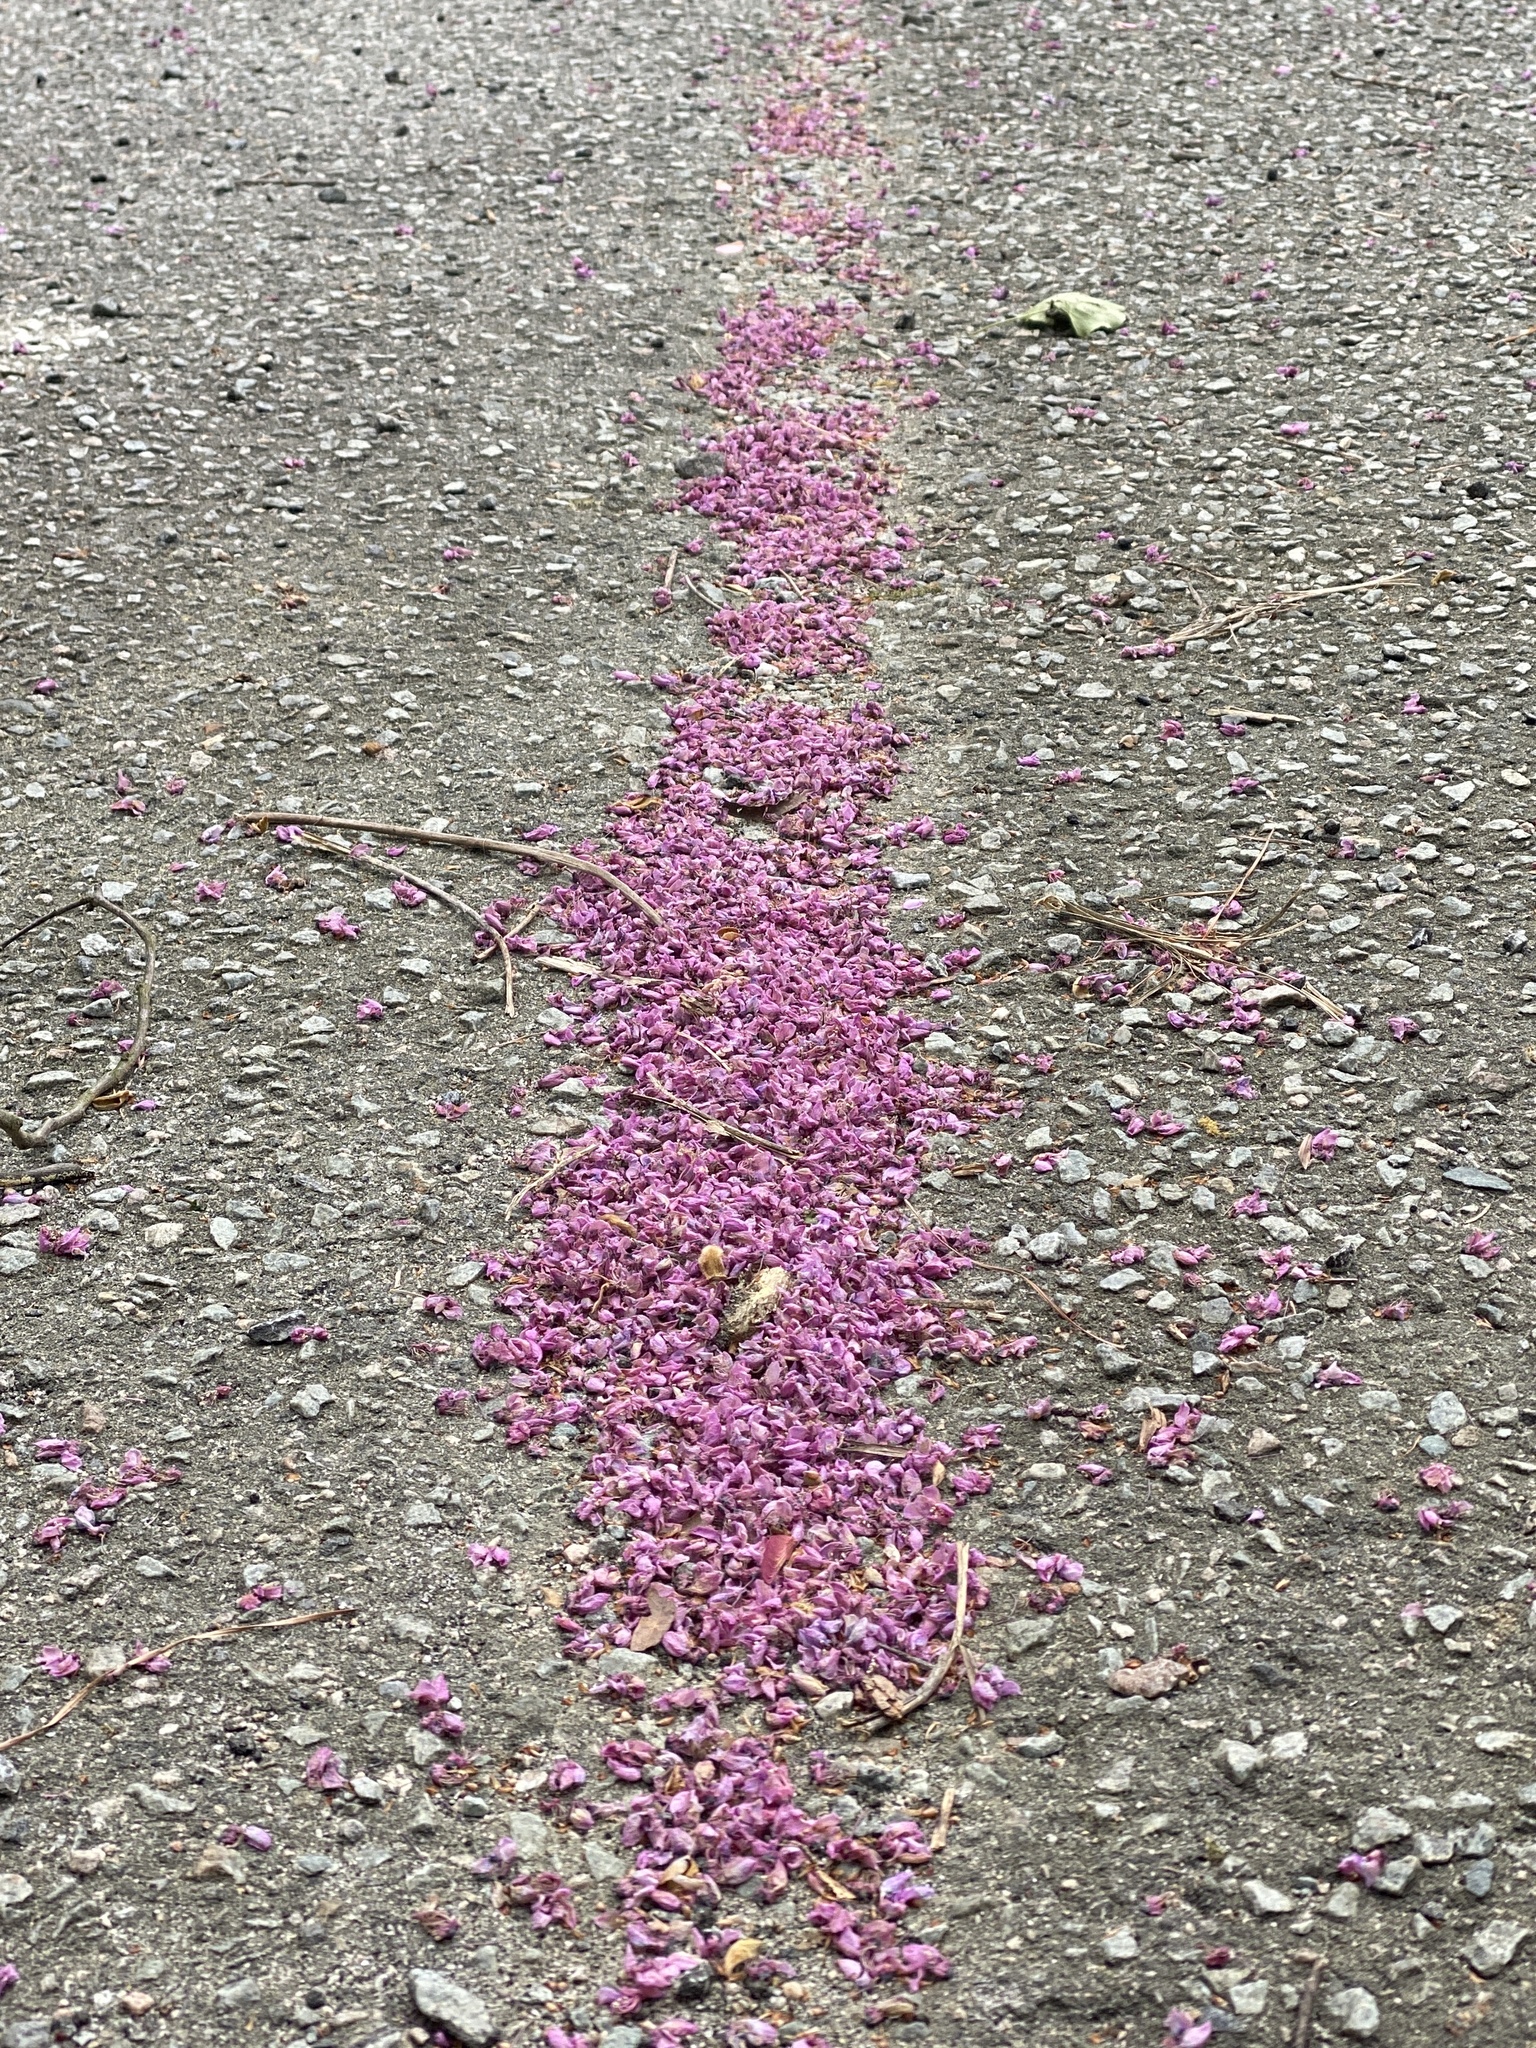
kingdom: Plantae
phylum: Tracheophyta
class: Magnoliopsida
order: Fabales
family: Fabaceae
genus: Cercis
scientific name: Cercis canadensis
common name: Eastern redbud
